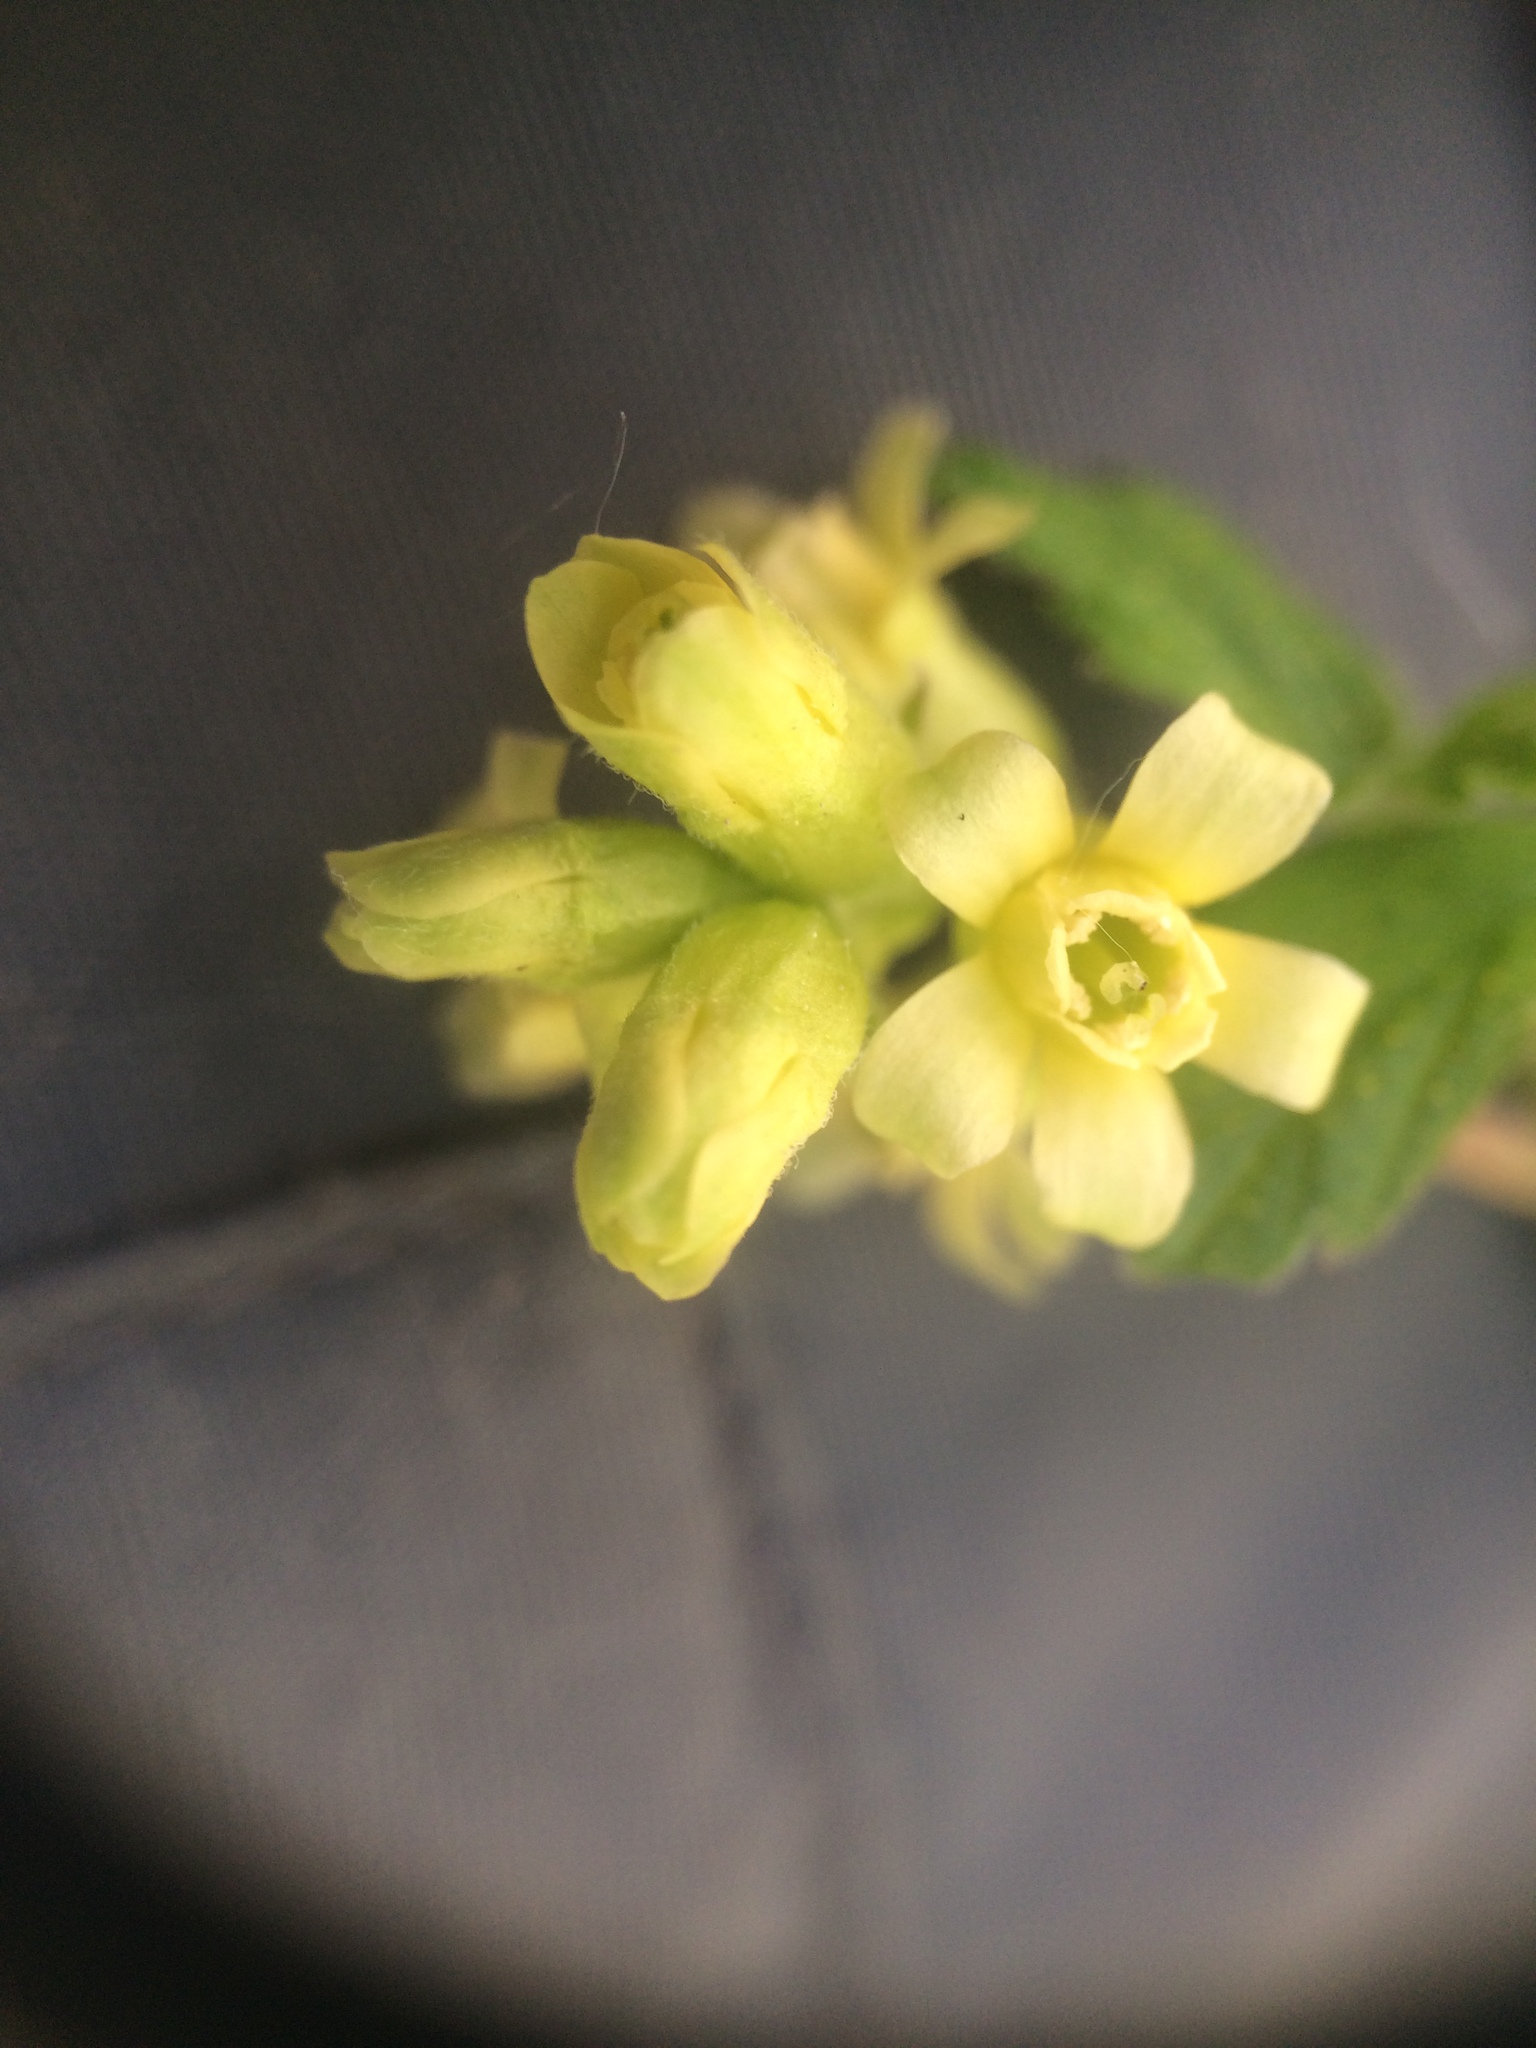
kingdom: Plantae
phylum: Tracheophyta
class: Magnoliopsida
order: Saxifragales
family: Grossulariaceae
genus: Ribes
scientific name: Ribes americanum
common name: American black currant
